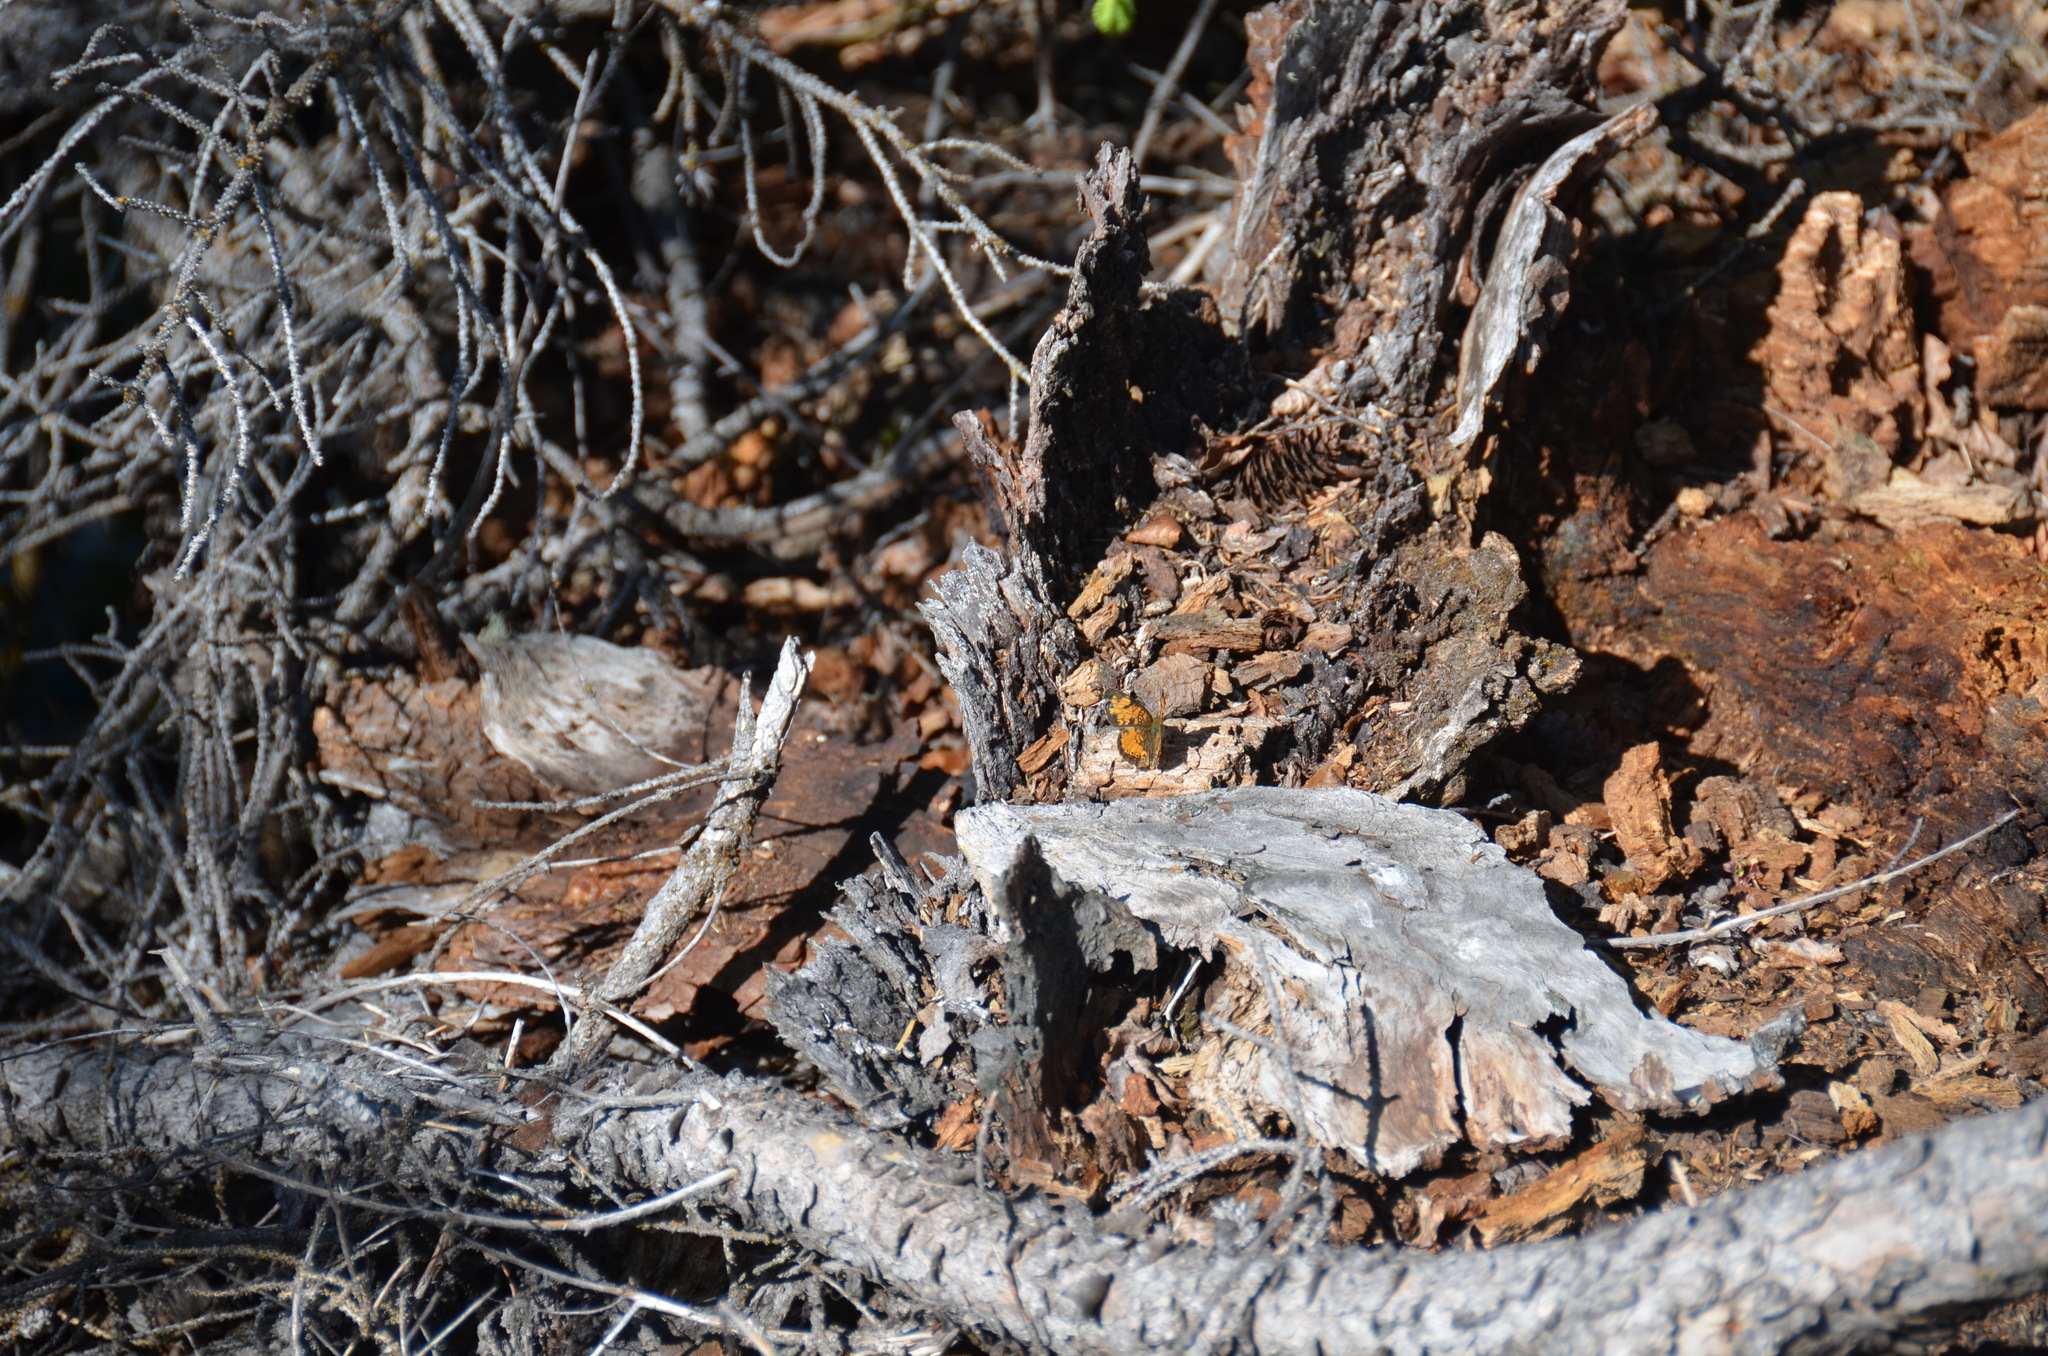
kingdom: Animalia
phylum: Arthropoda
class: Insecta
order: Lepidoptera
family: Nymphalidae
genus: Phyciodes
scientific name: Phyciodes tharos
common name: Pearl crescent
